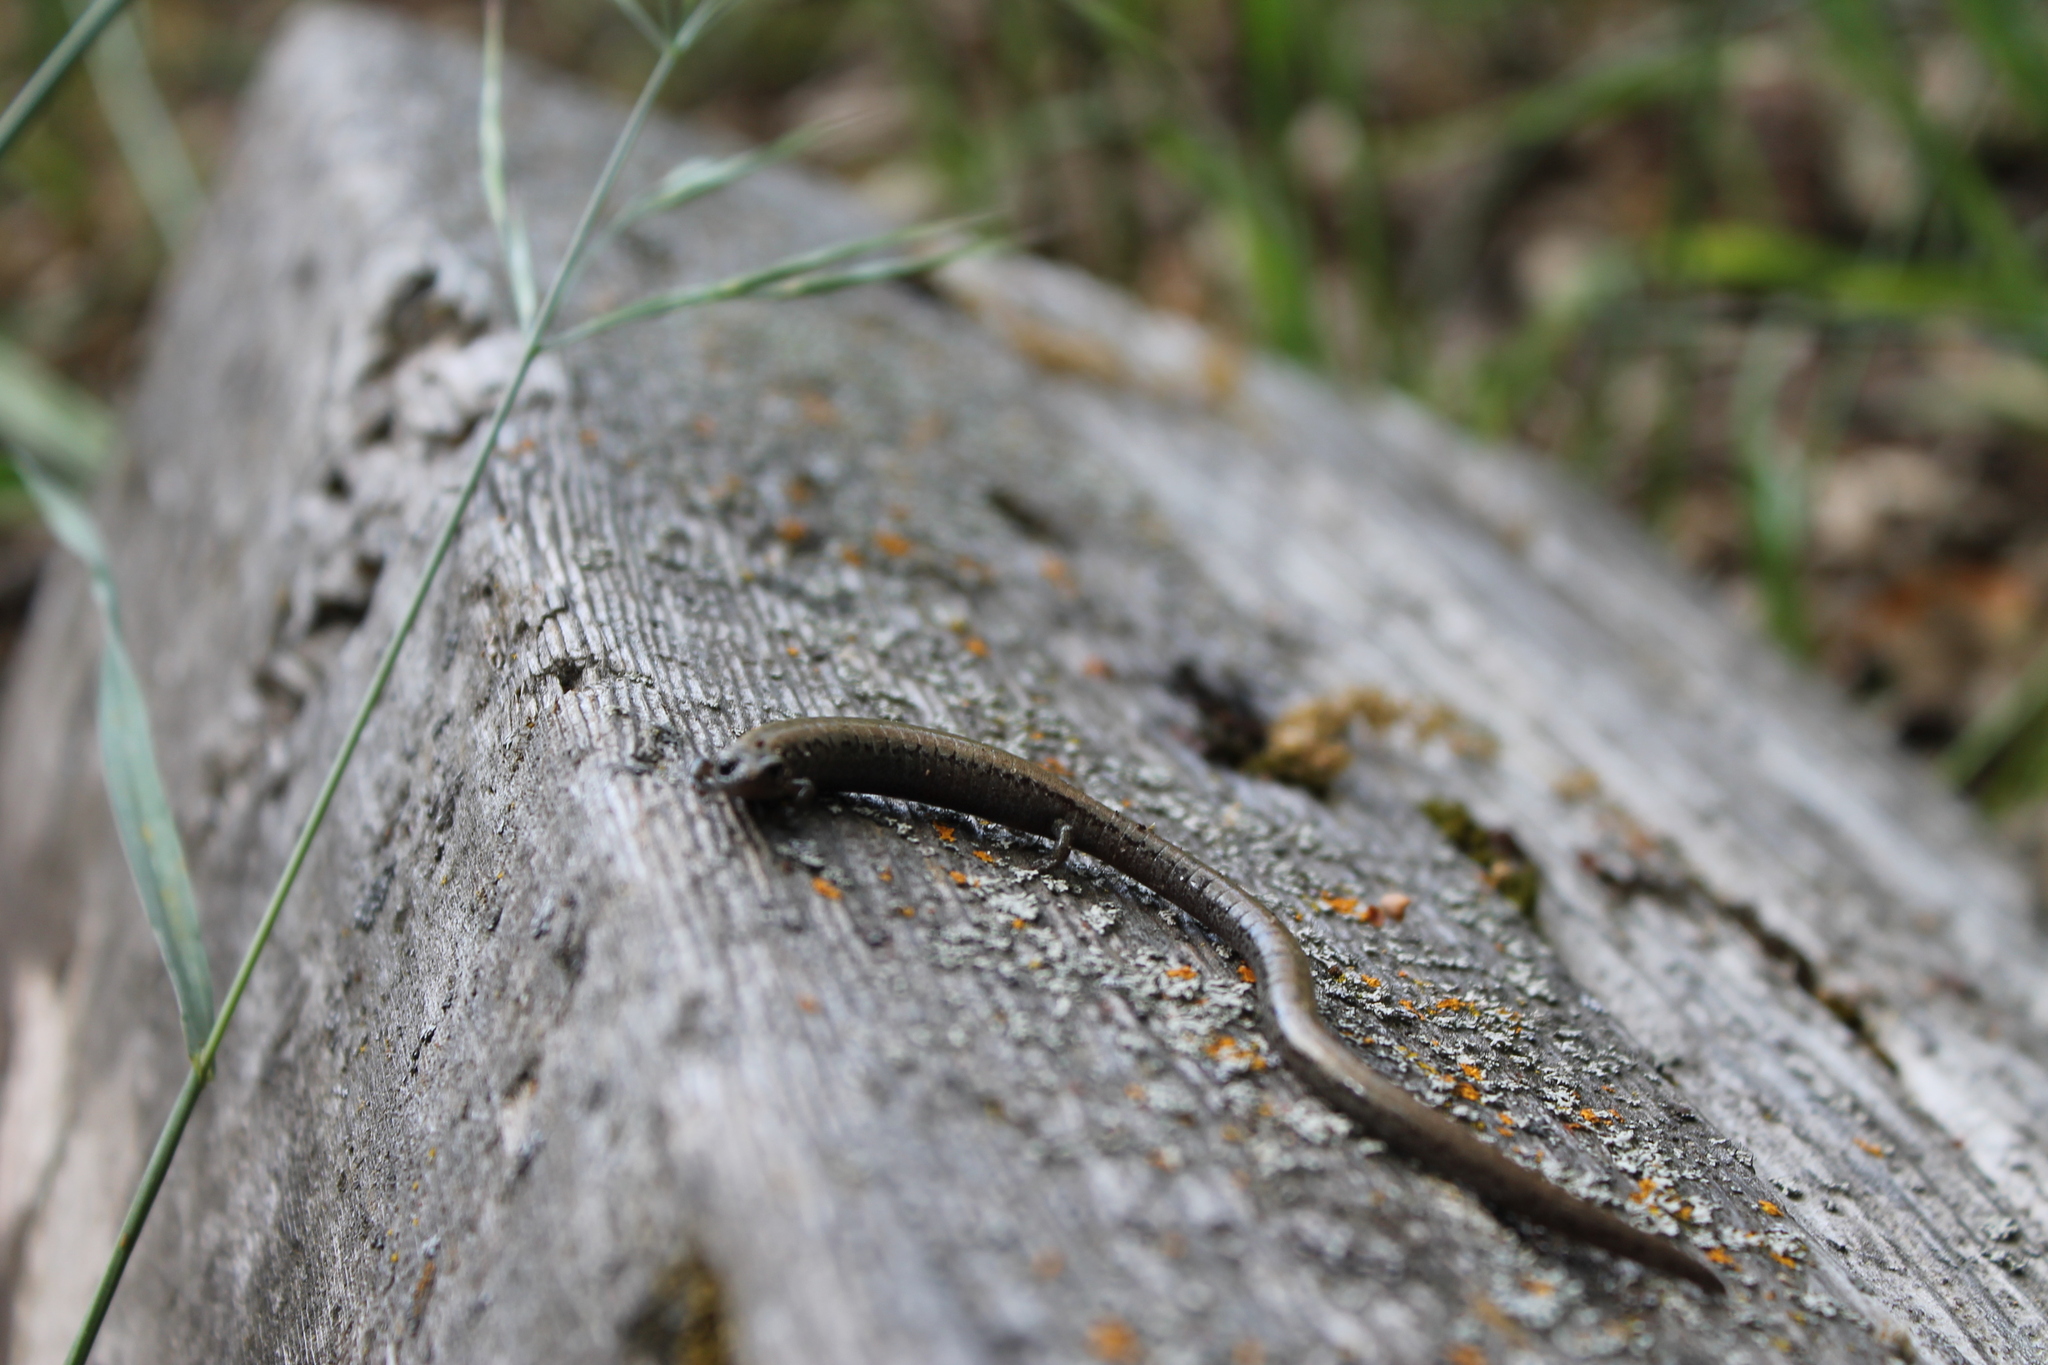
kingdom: Animalia
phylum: Chordata
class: Amphibia
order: Caudata
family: Plethodontidae
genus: Batrachoseps
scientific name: Batrachoseps gavilanensis
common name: Gabilan mountains slender salamander
